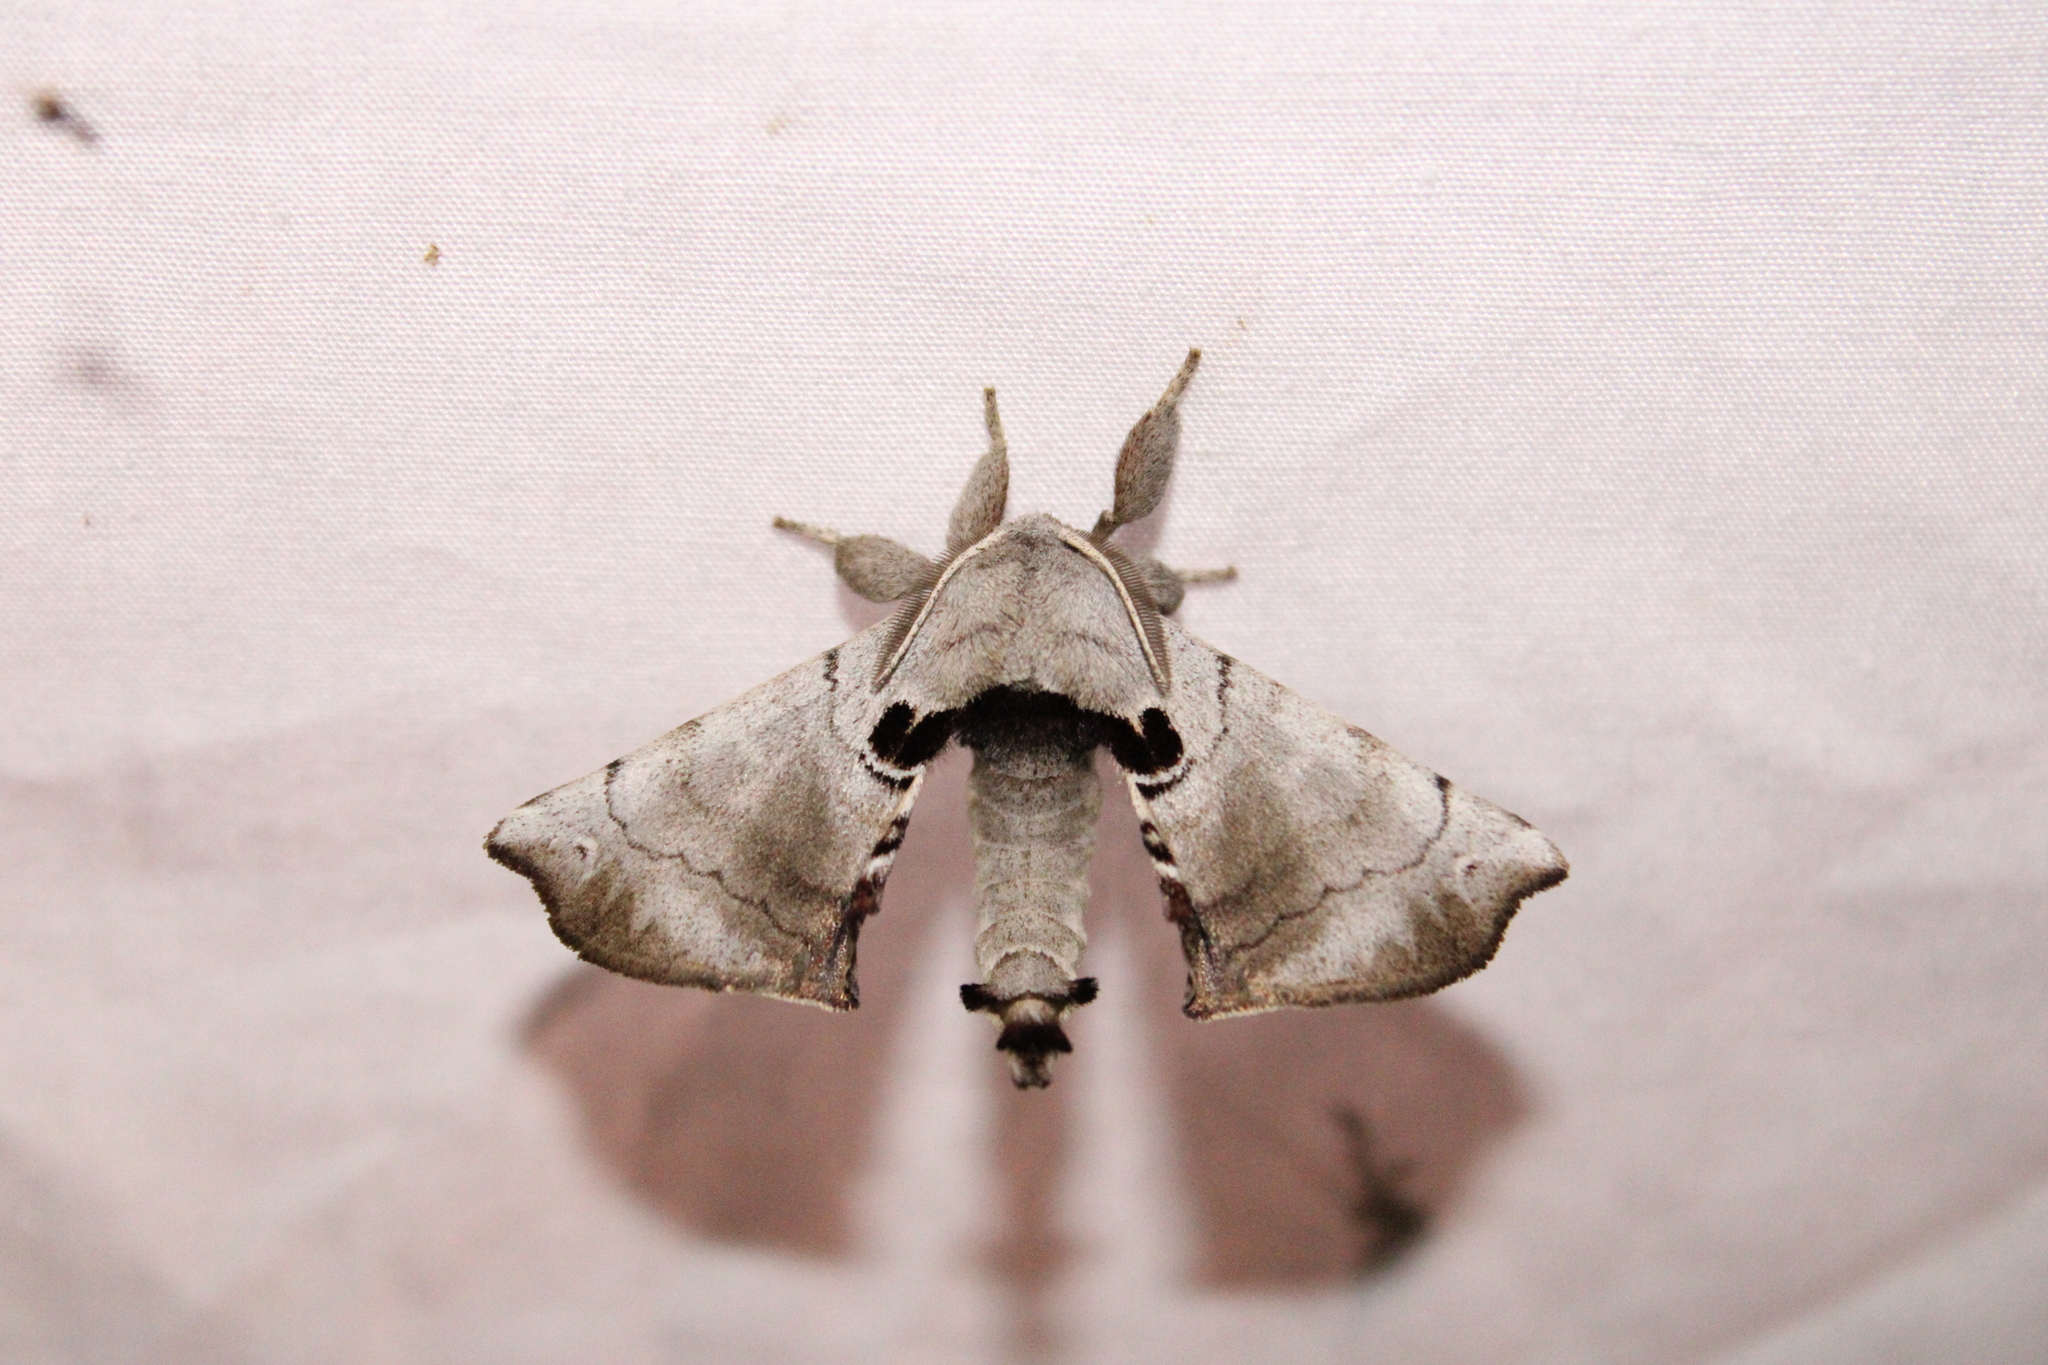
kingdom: Animalia
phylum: Arthropoda
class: Insecta
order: Lepidoptera
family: Apatelodidae
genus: Hygrochroa
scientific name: Hygrochroa Apatelodes torrefacta
